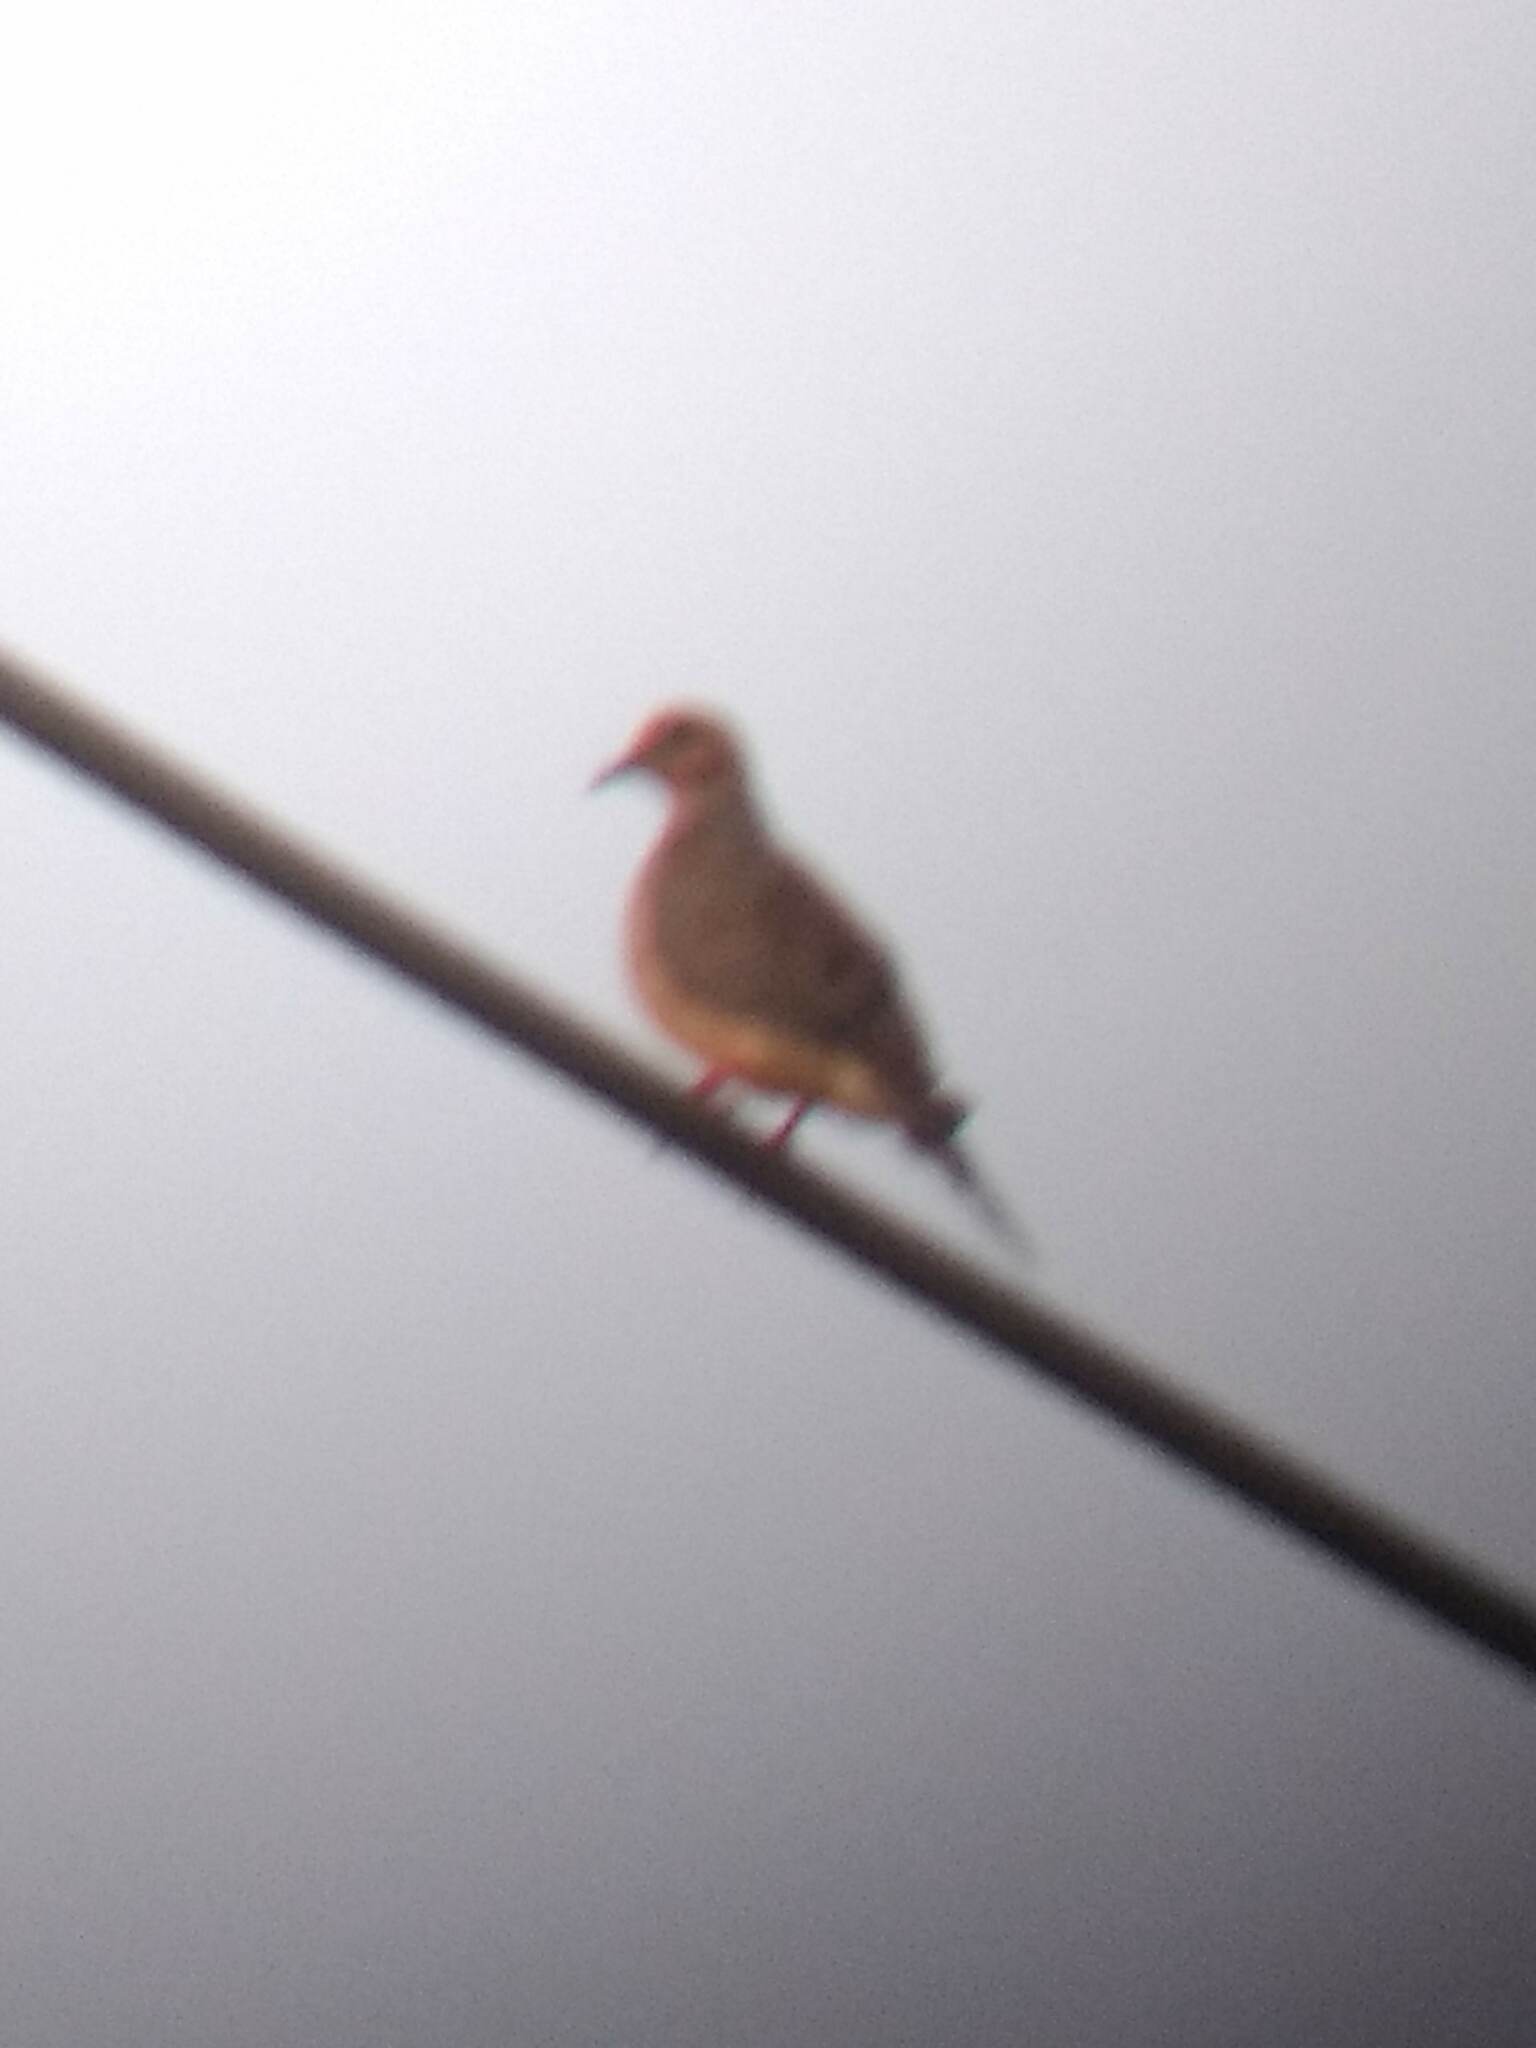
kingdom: Animalia
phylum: Chordata
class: Aves
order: Columbiformes
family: Columbidae
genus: Zenaida
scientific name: Zenaida macroura
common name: Mourning dove
